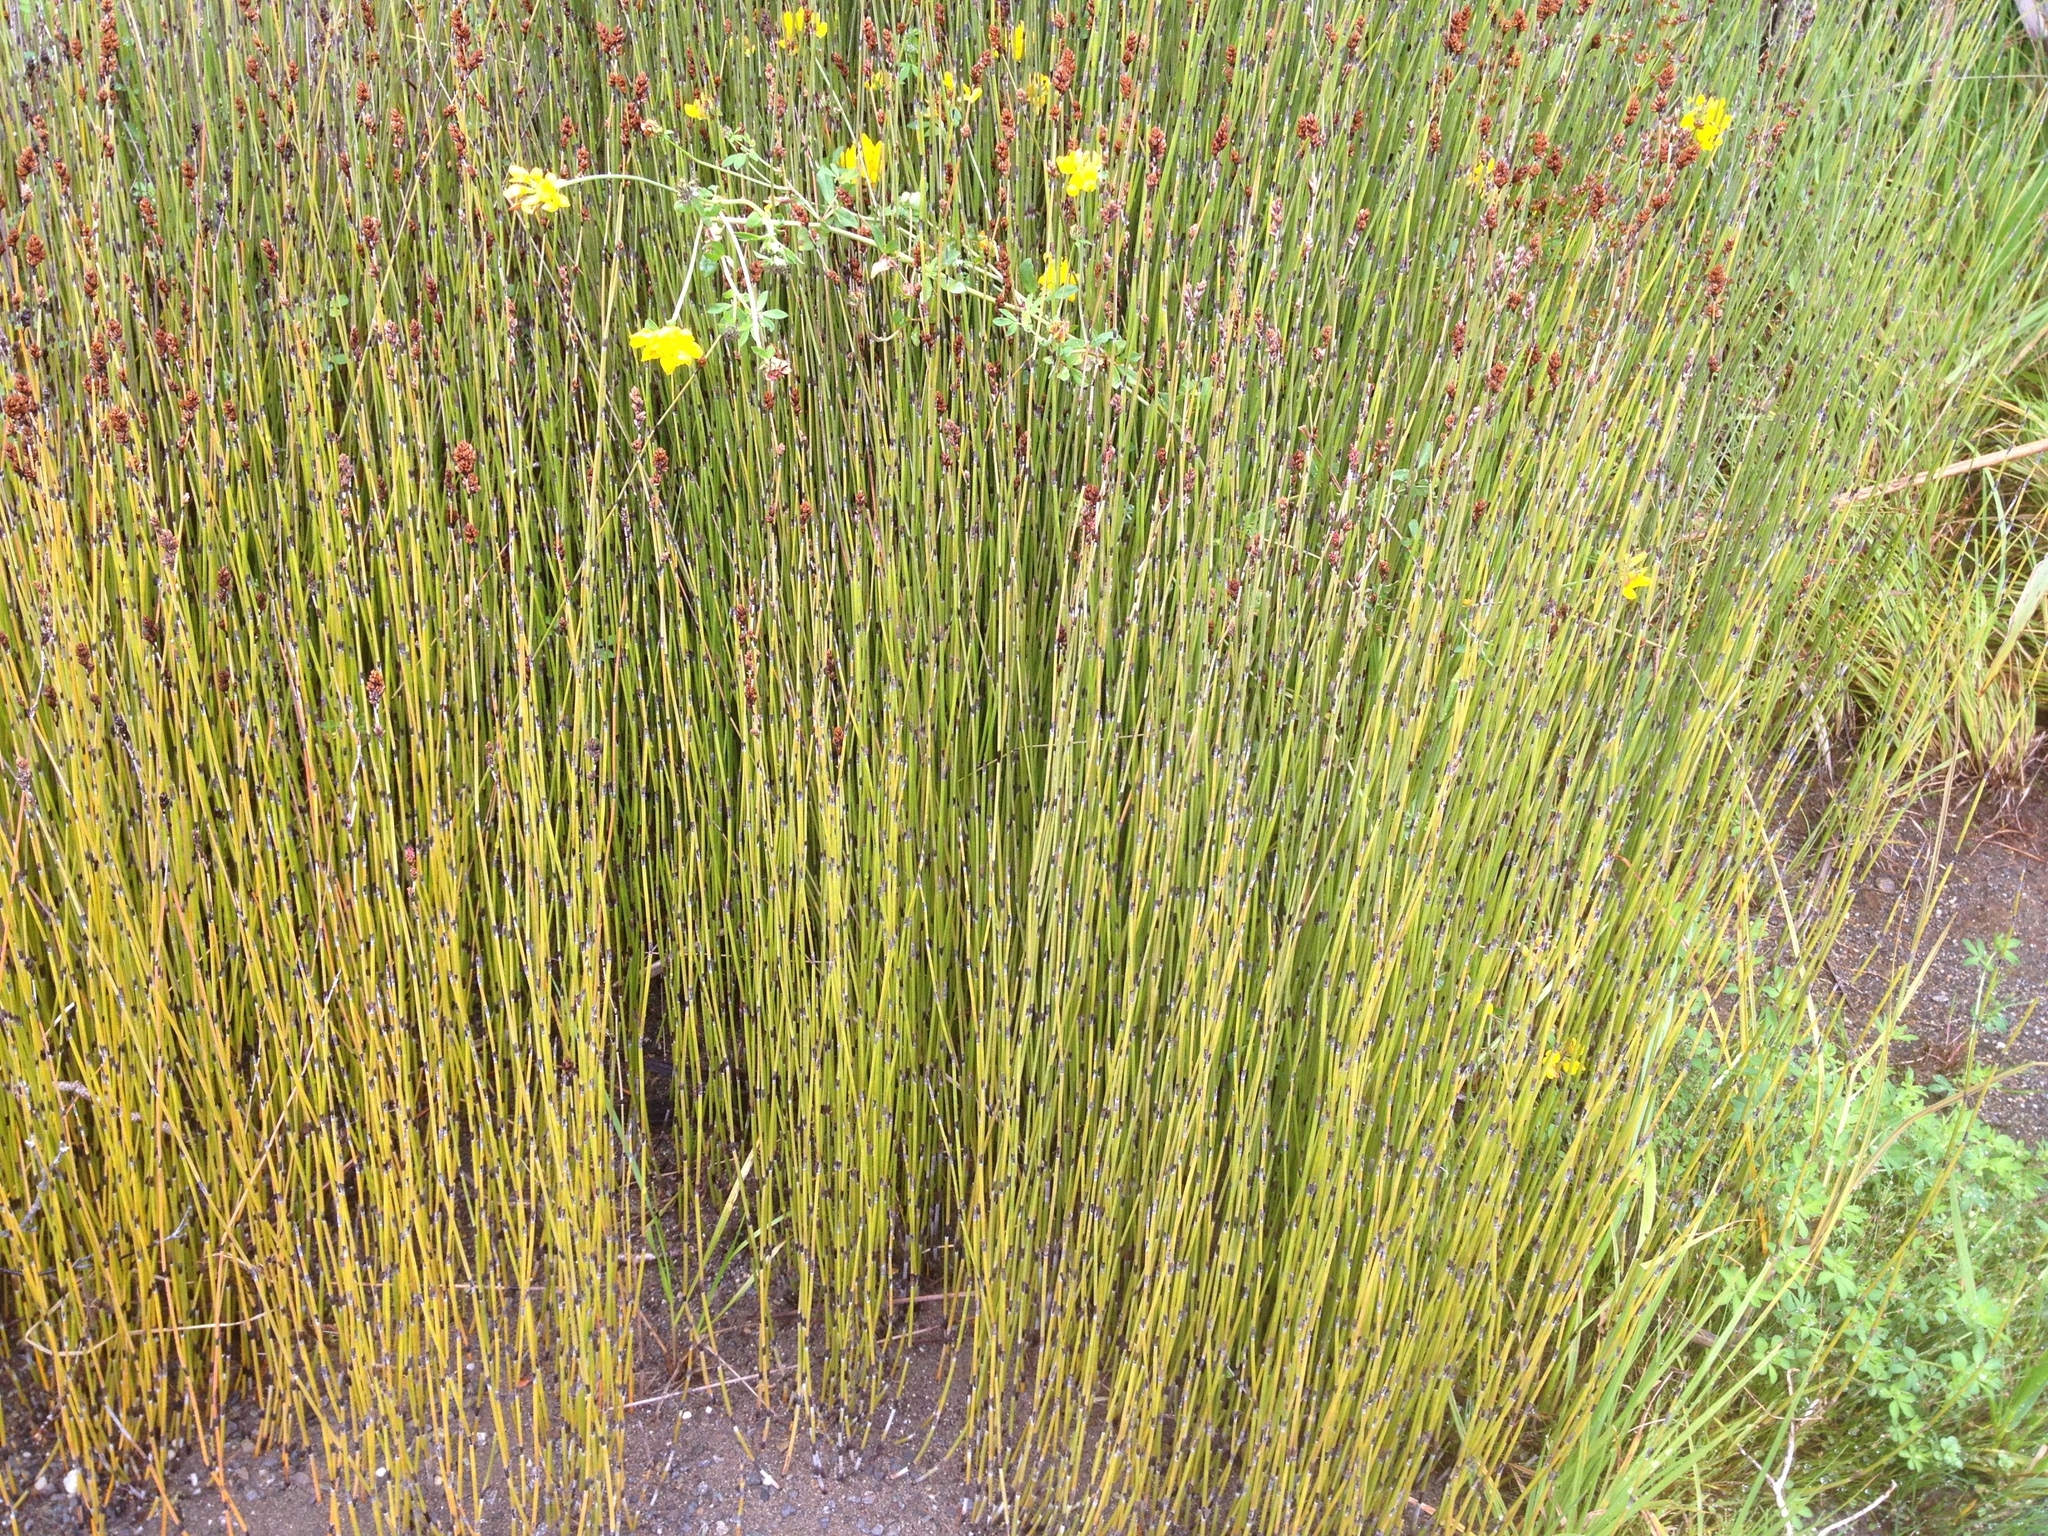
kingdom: Plantae
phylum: Tracheophyta
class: Liliopsida
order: Poales
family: Restionaceae
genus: Apodasmia
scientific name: Apodasmia similis
